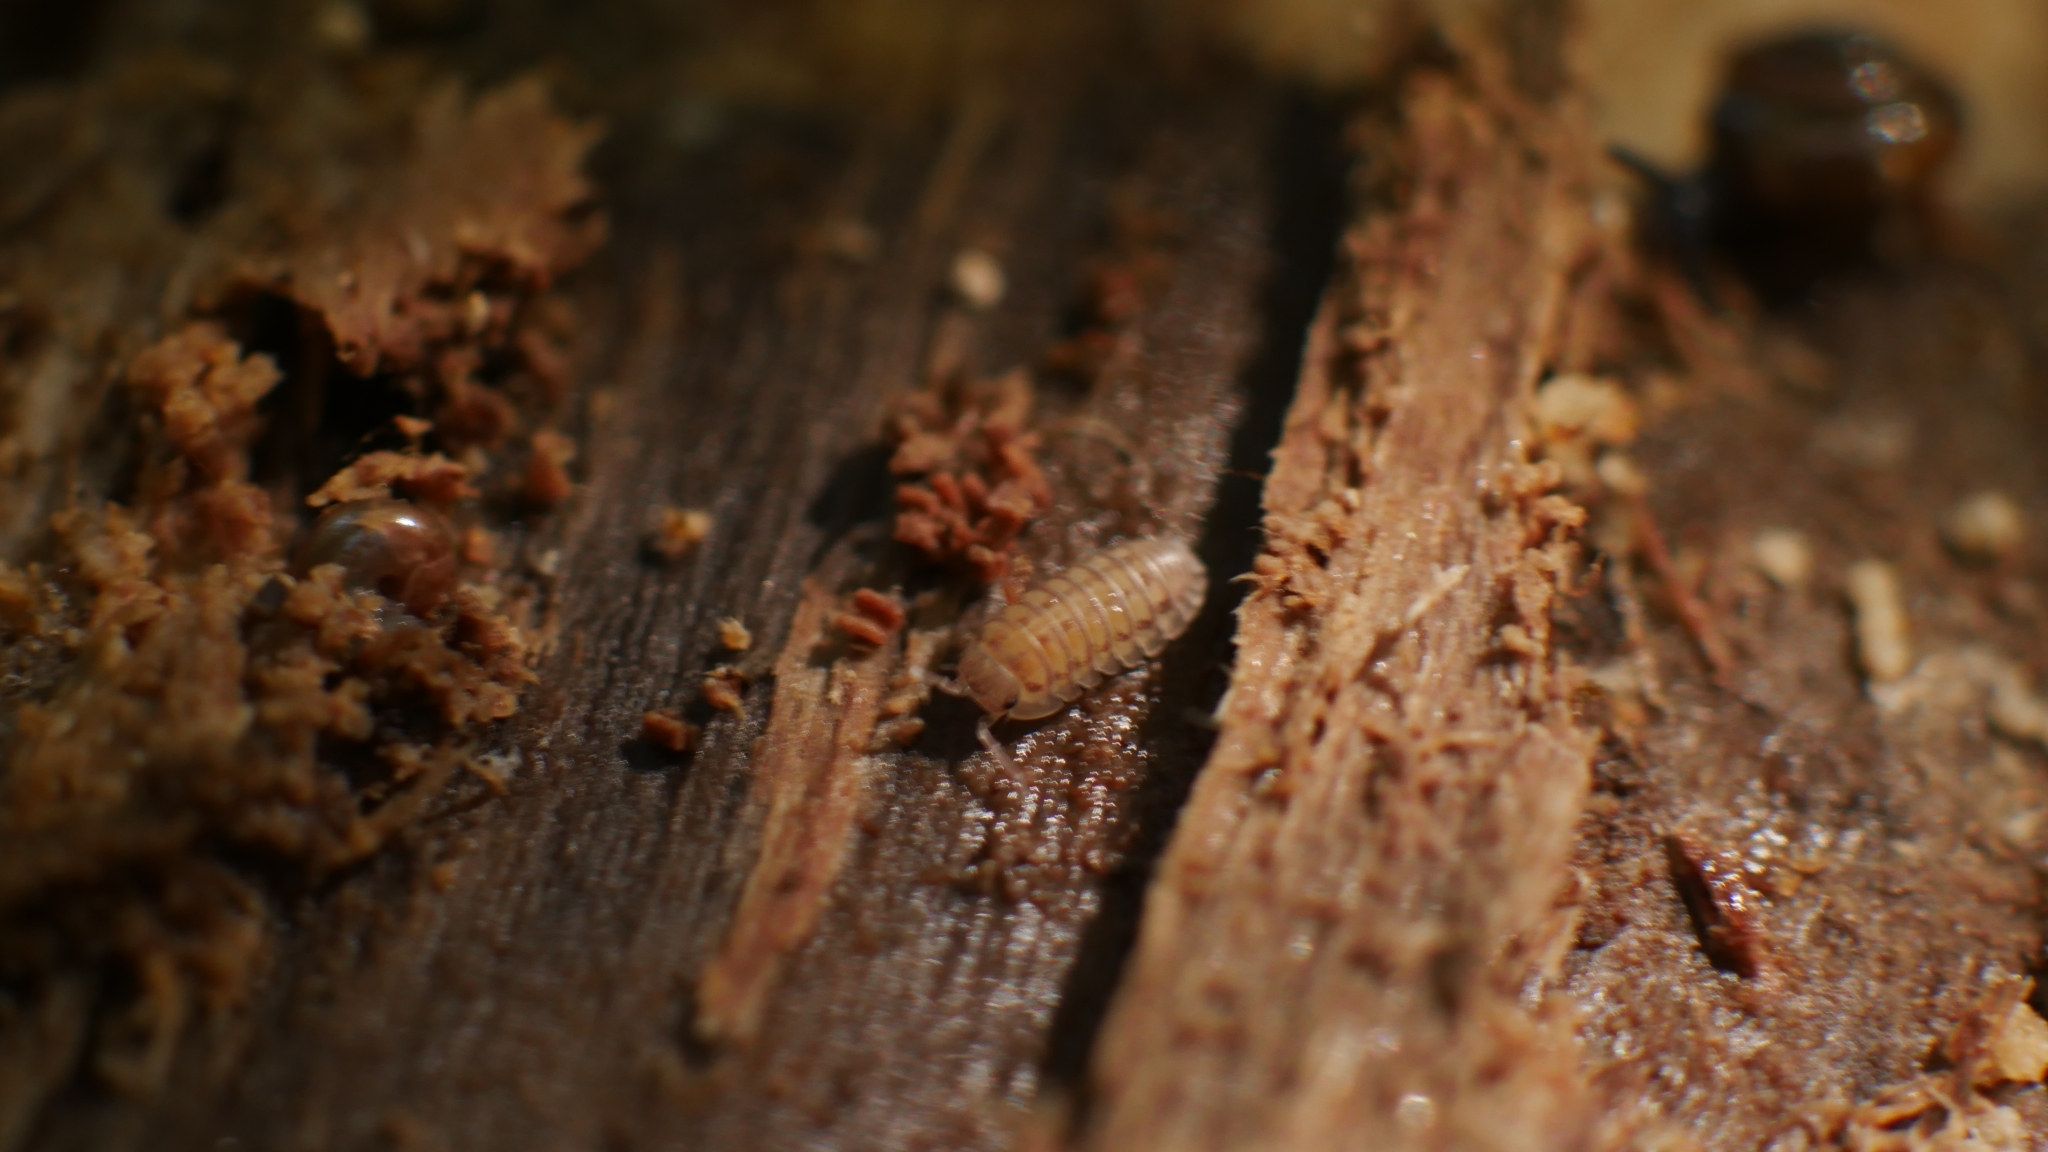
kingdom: Animalia
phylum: Arthropoda
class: Malacostraca
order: Isopoda
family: Armadillidiidae
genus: Armadillidium
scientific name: Armadillidium nasatum
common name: Isopod
